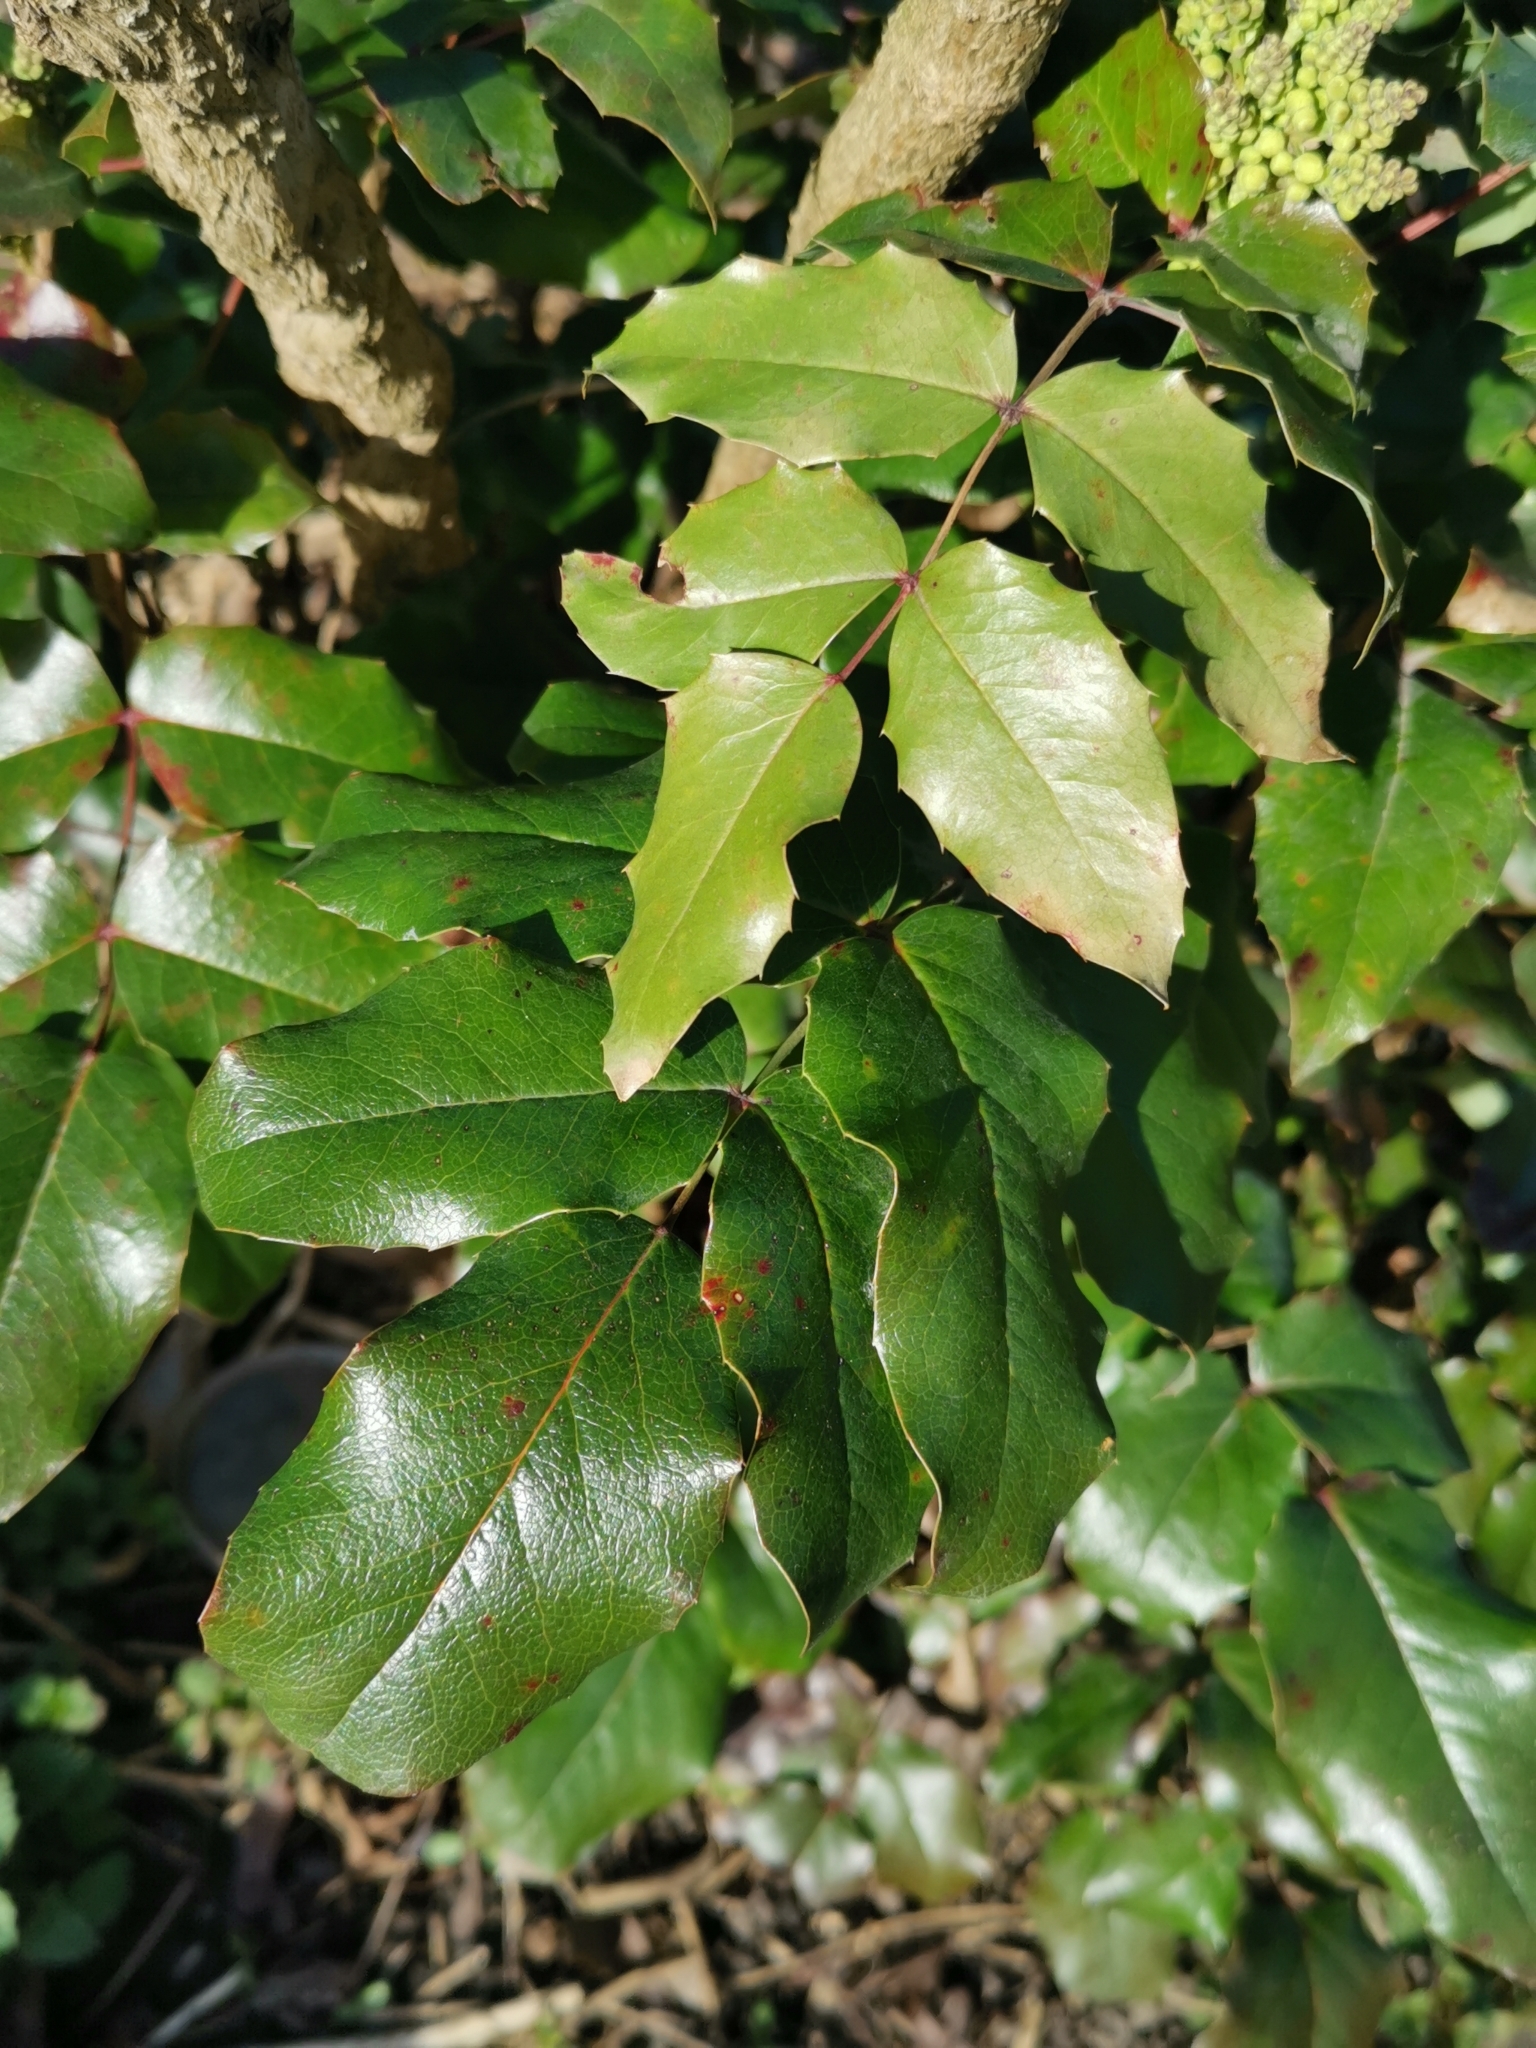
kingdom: Plantae
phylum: Tracheophyta
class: Magnoliopsida
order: Ranunculales
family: Berberidaceae
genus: Mahonia
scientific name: Mahonia aquifolium
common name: Oregon-grape
